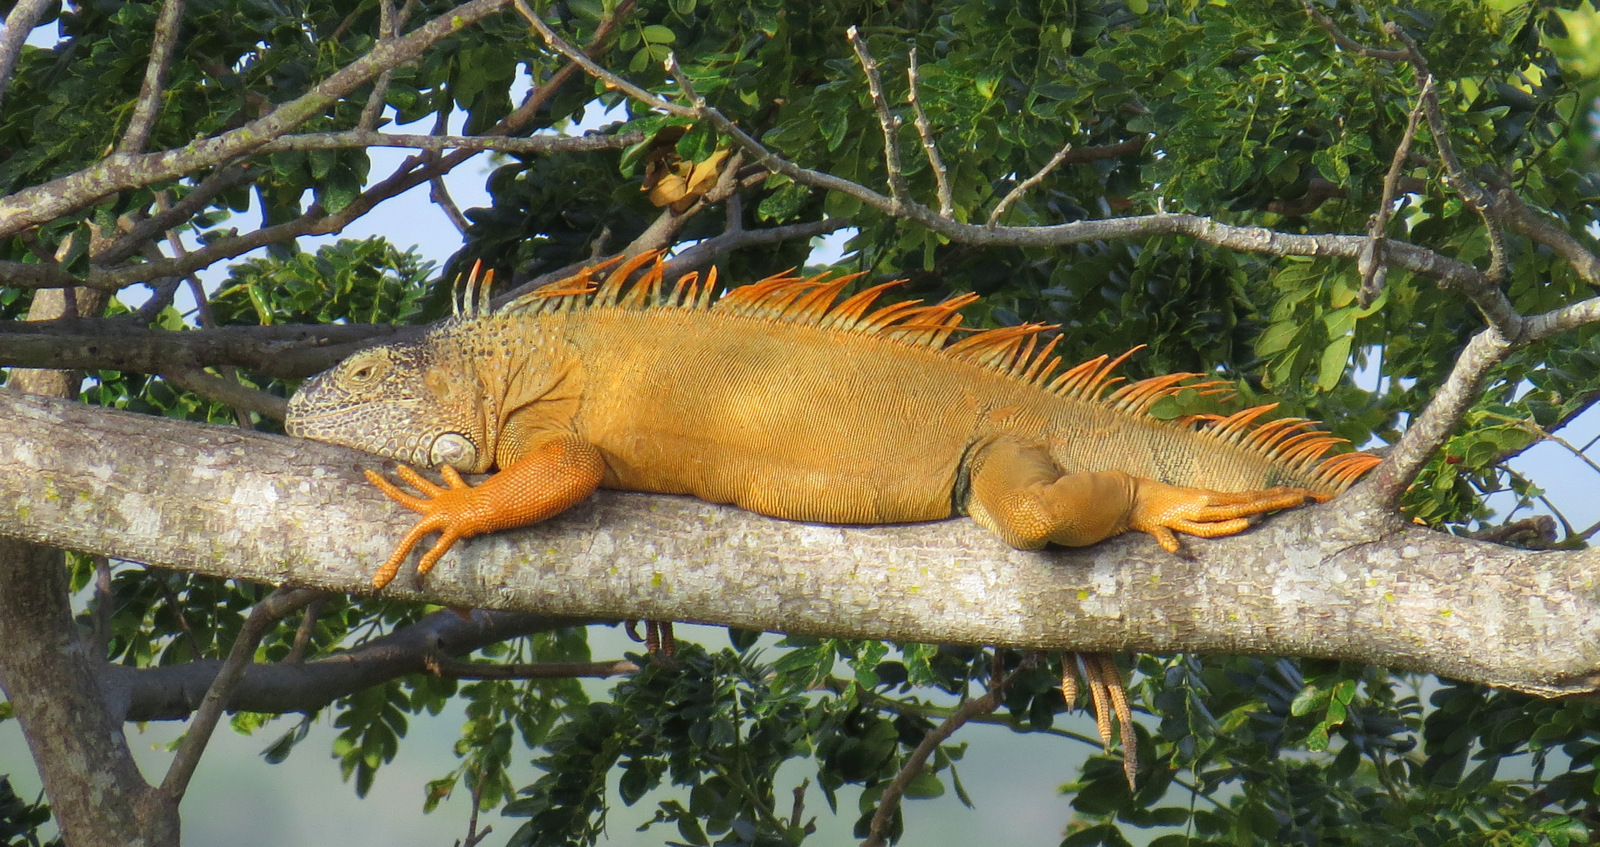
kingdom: Animalia
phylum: Chordata
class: Squamata
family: Iguanidae
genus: Iguana
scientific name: Iguana iguana
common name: Green iguana
